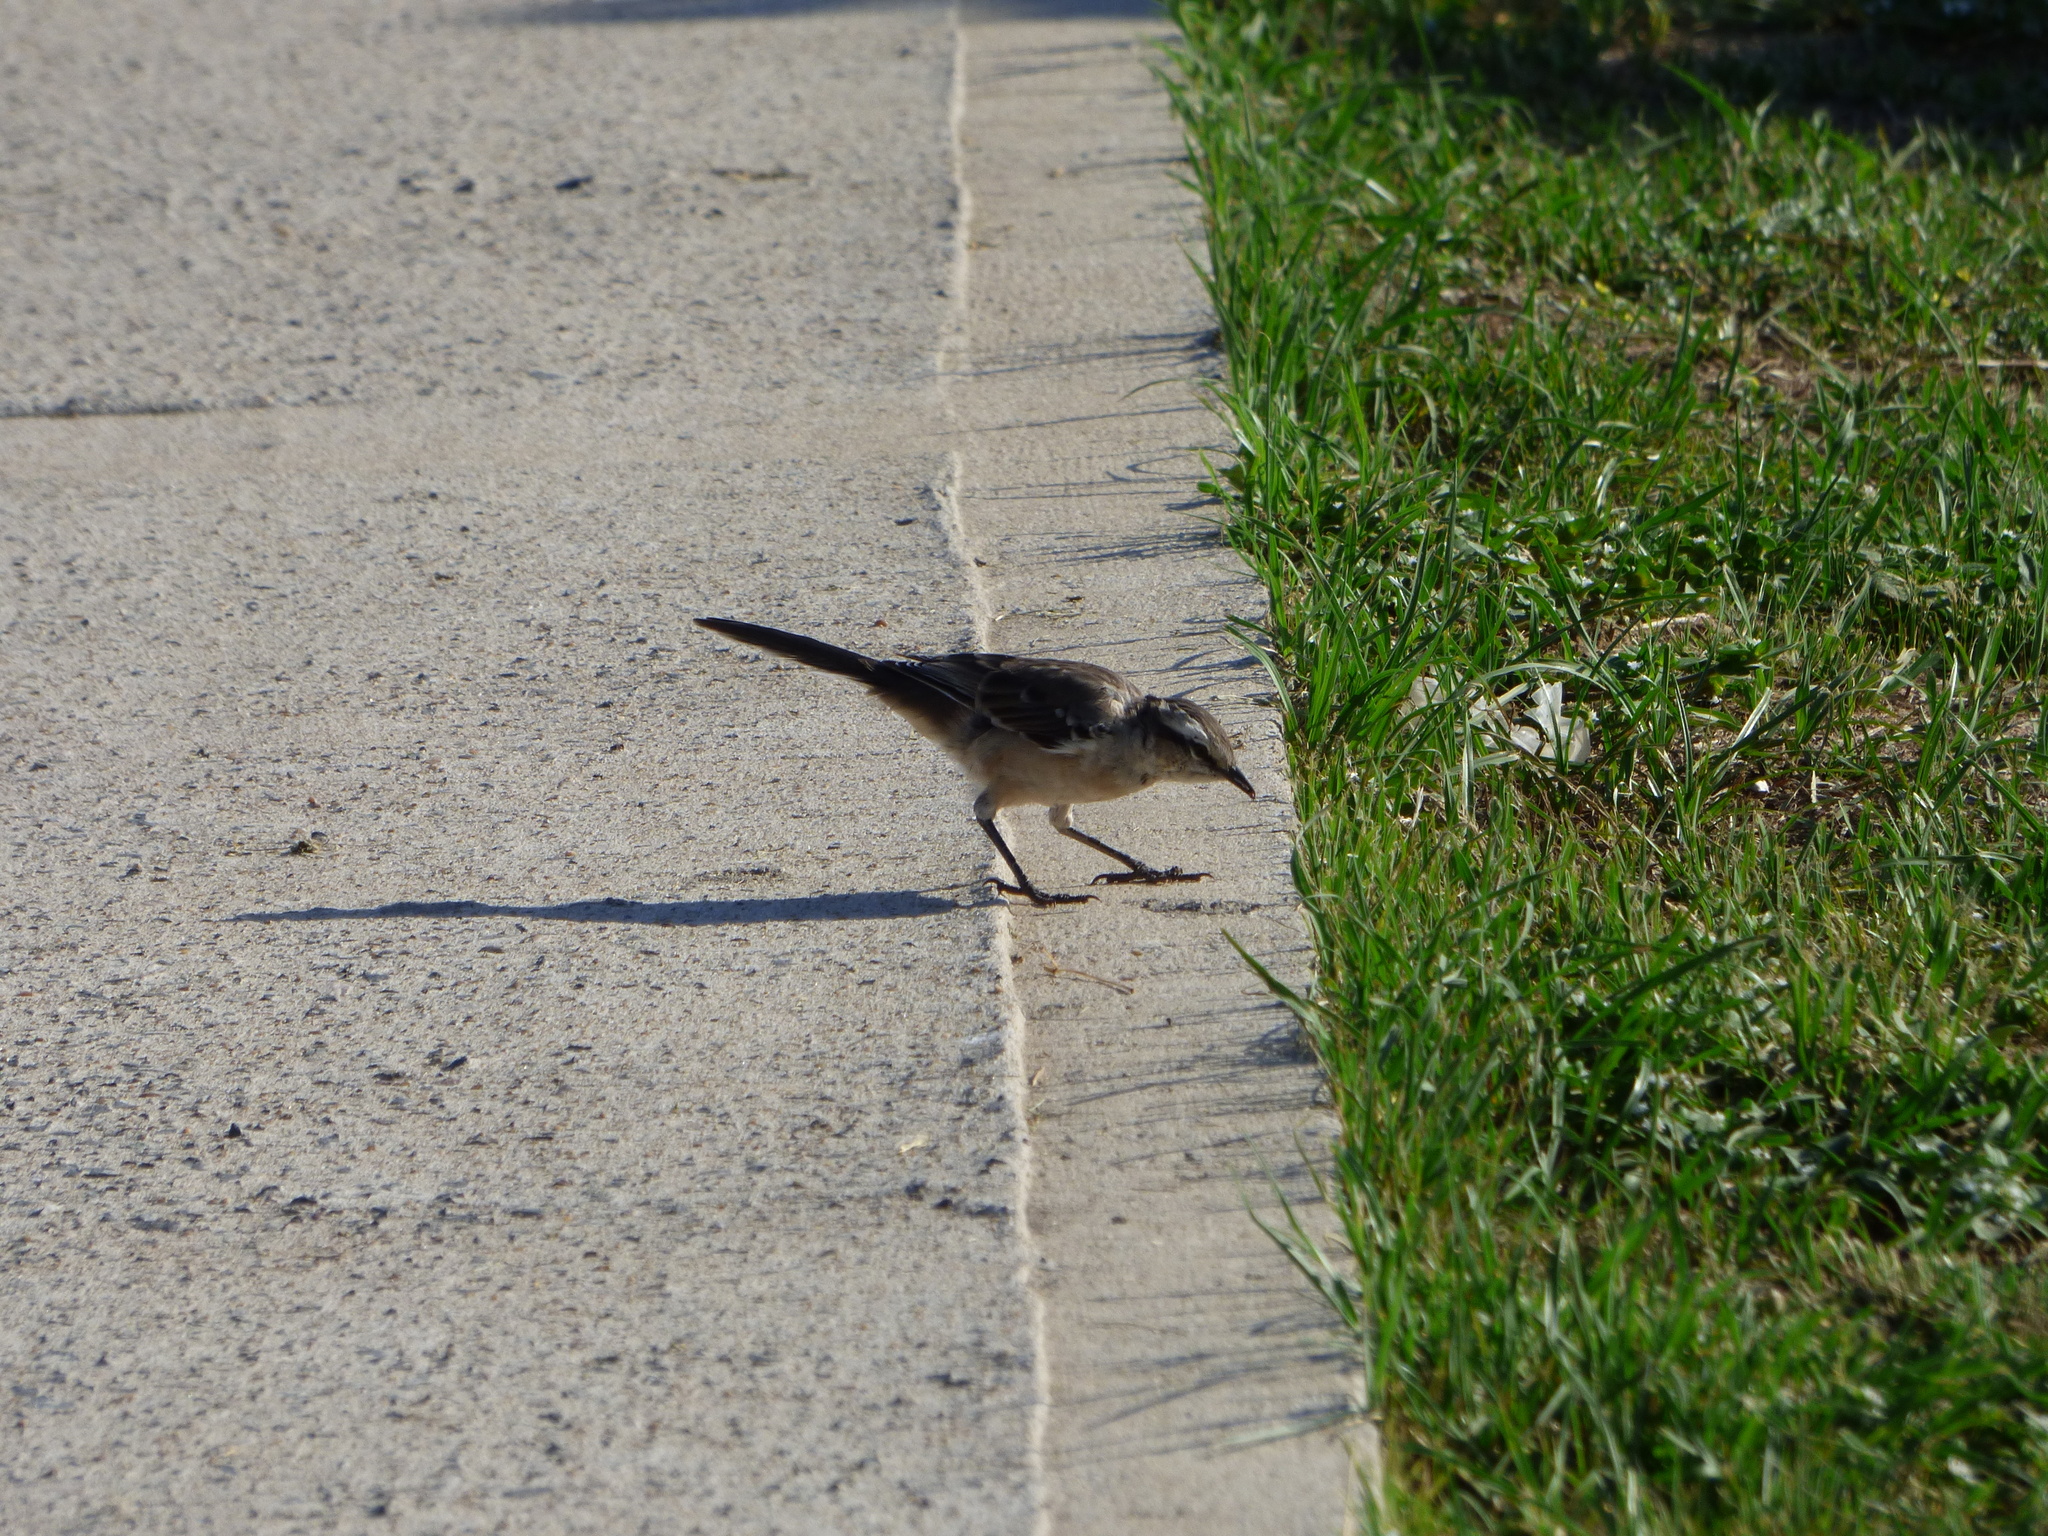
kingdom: Animalia
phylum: Chordata
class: Aves
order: Passeriformes
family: Mimidae
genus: Mimus
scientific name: Mimus saturninus
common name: Chalk-browed mockingbird
